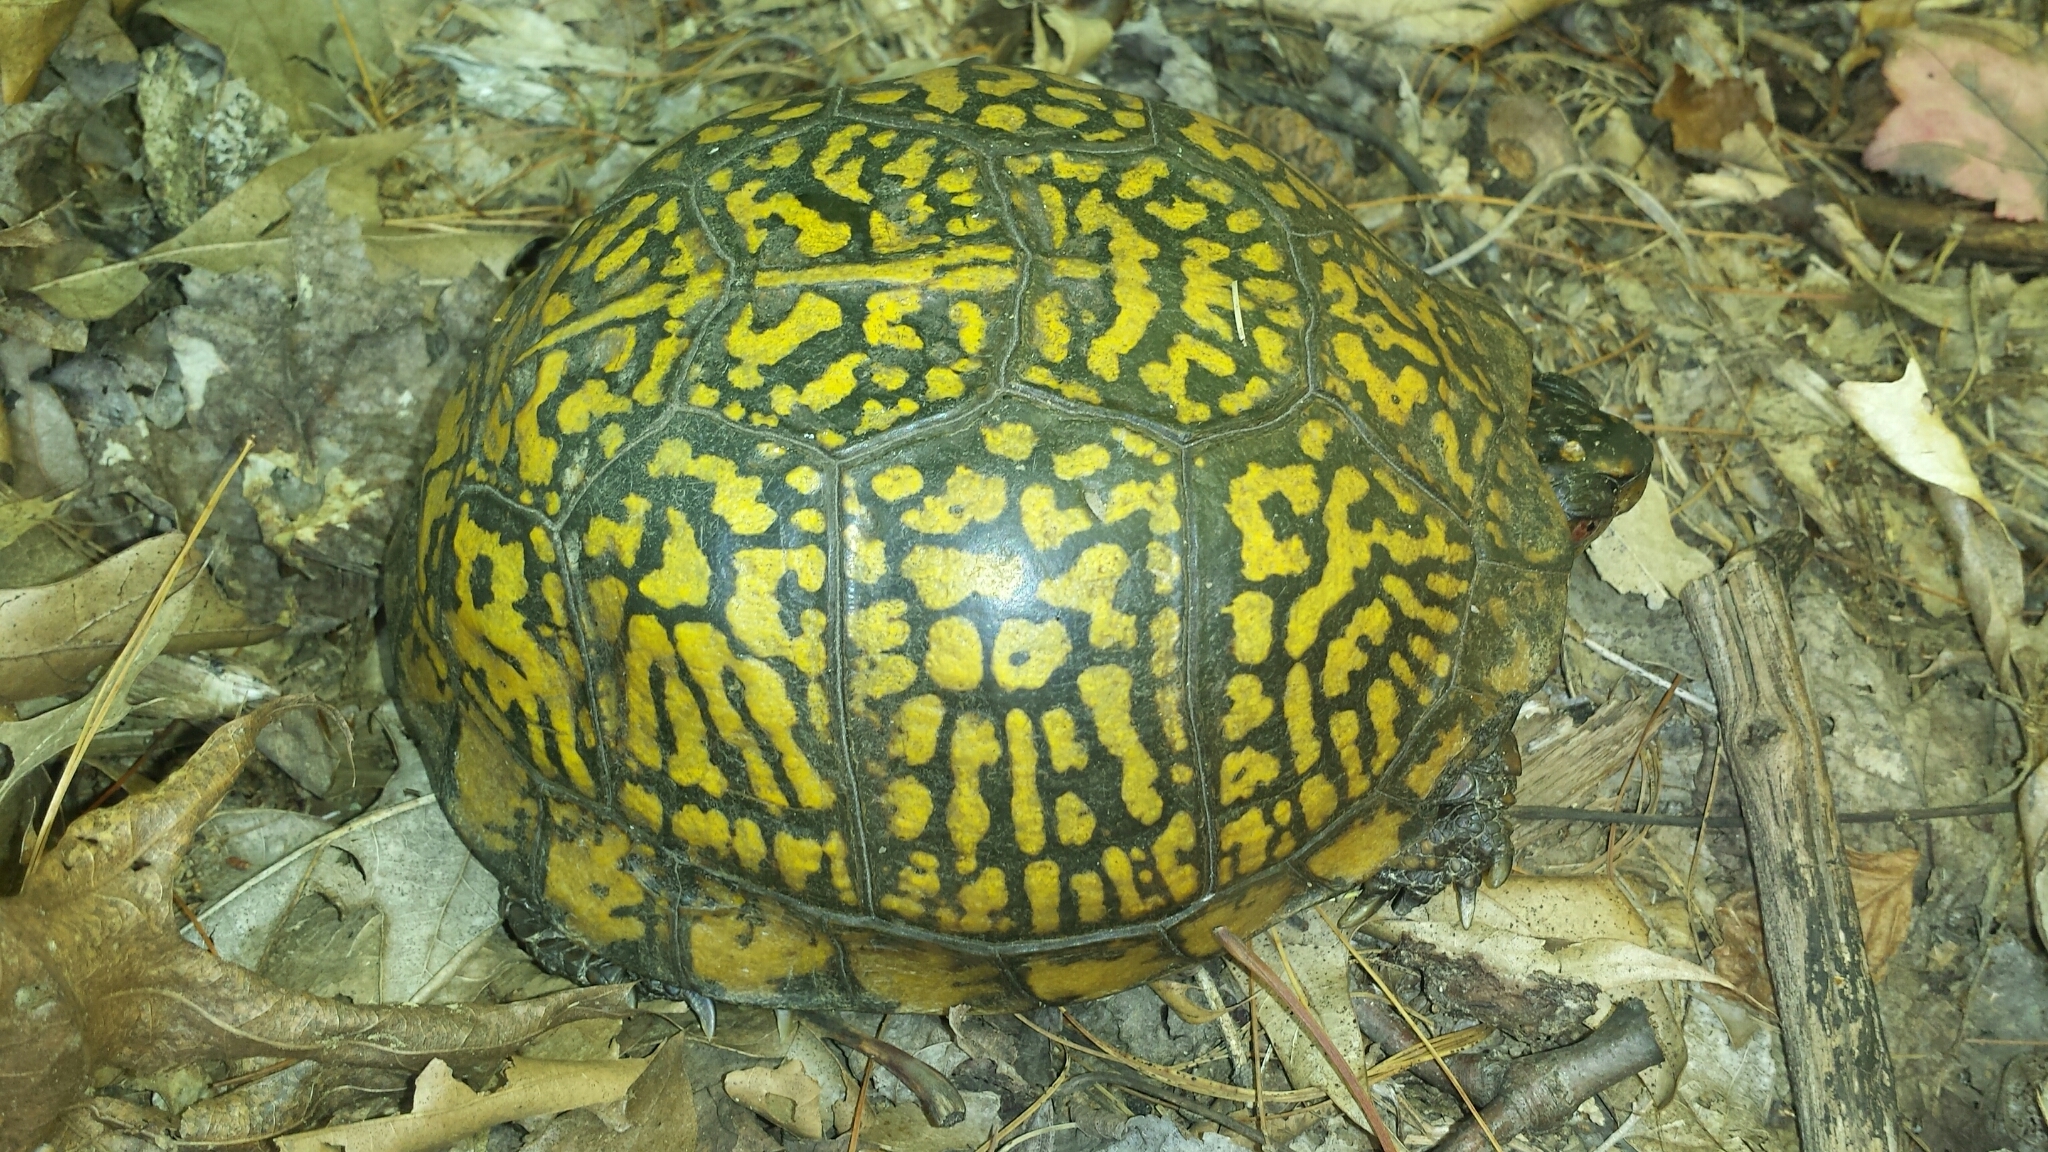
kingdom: Animalia
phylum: Chordata
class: Testudines
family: Emydidae
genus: Terrapene
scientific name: Terrapene carolina
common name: Common box turtle
